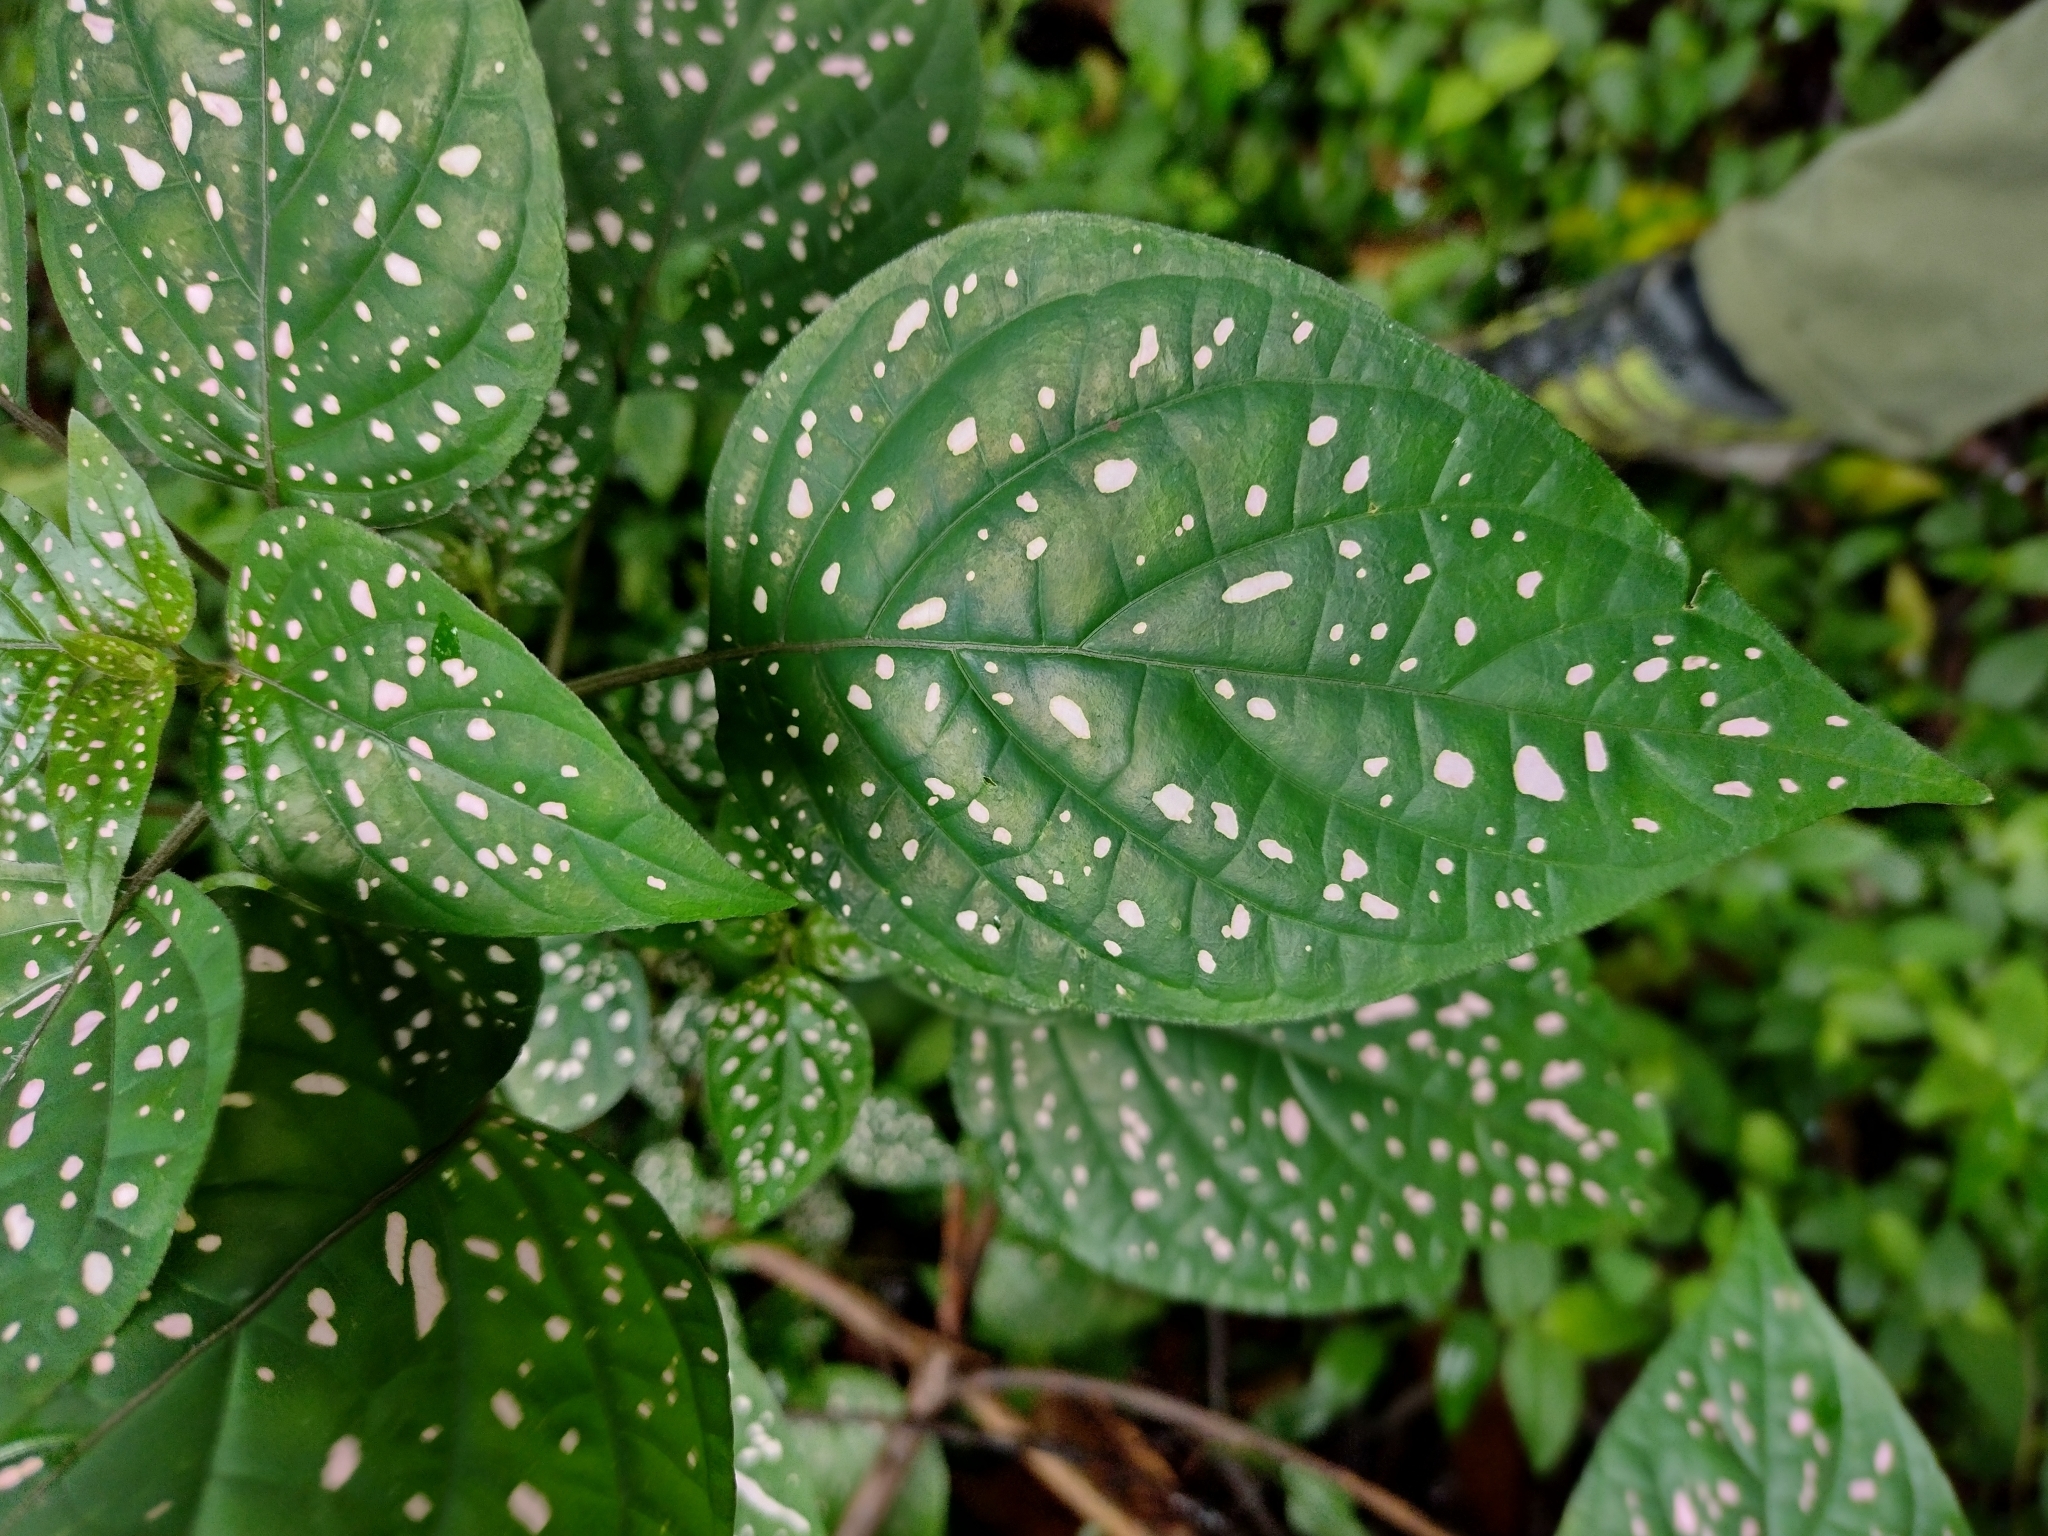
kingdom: Plantae
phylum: Tracheophyta
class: Magnoliopsida
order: Lamiales
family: Acanthaceae
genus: Hypoestes
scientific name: Hypoestes phyllostachya
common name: Polkadot-plant
